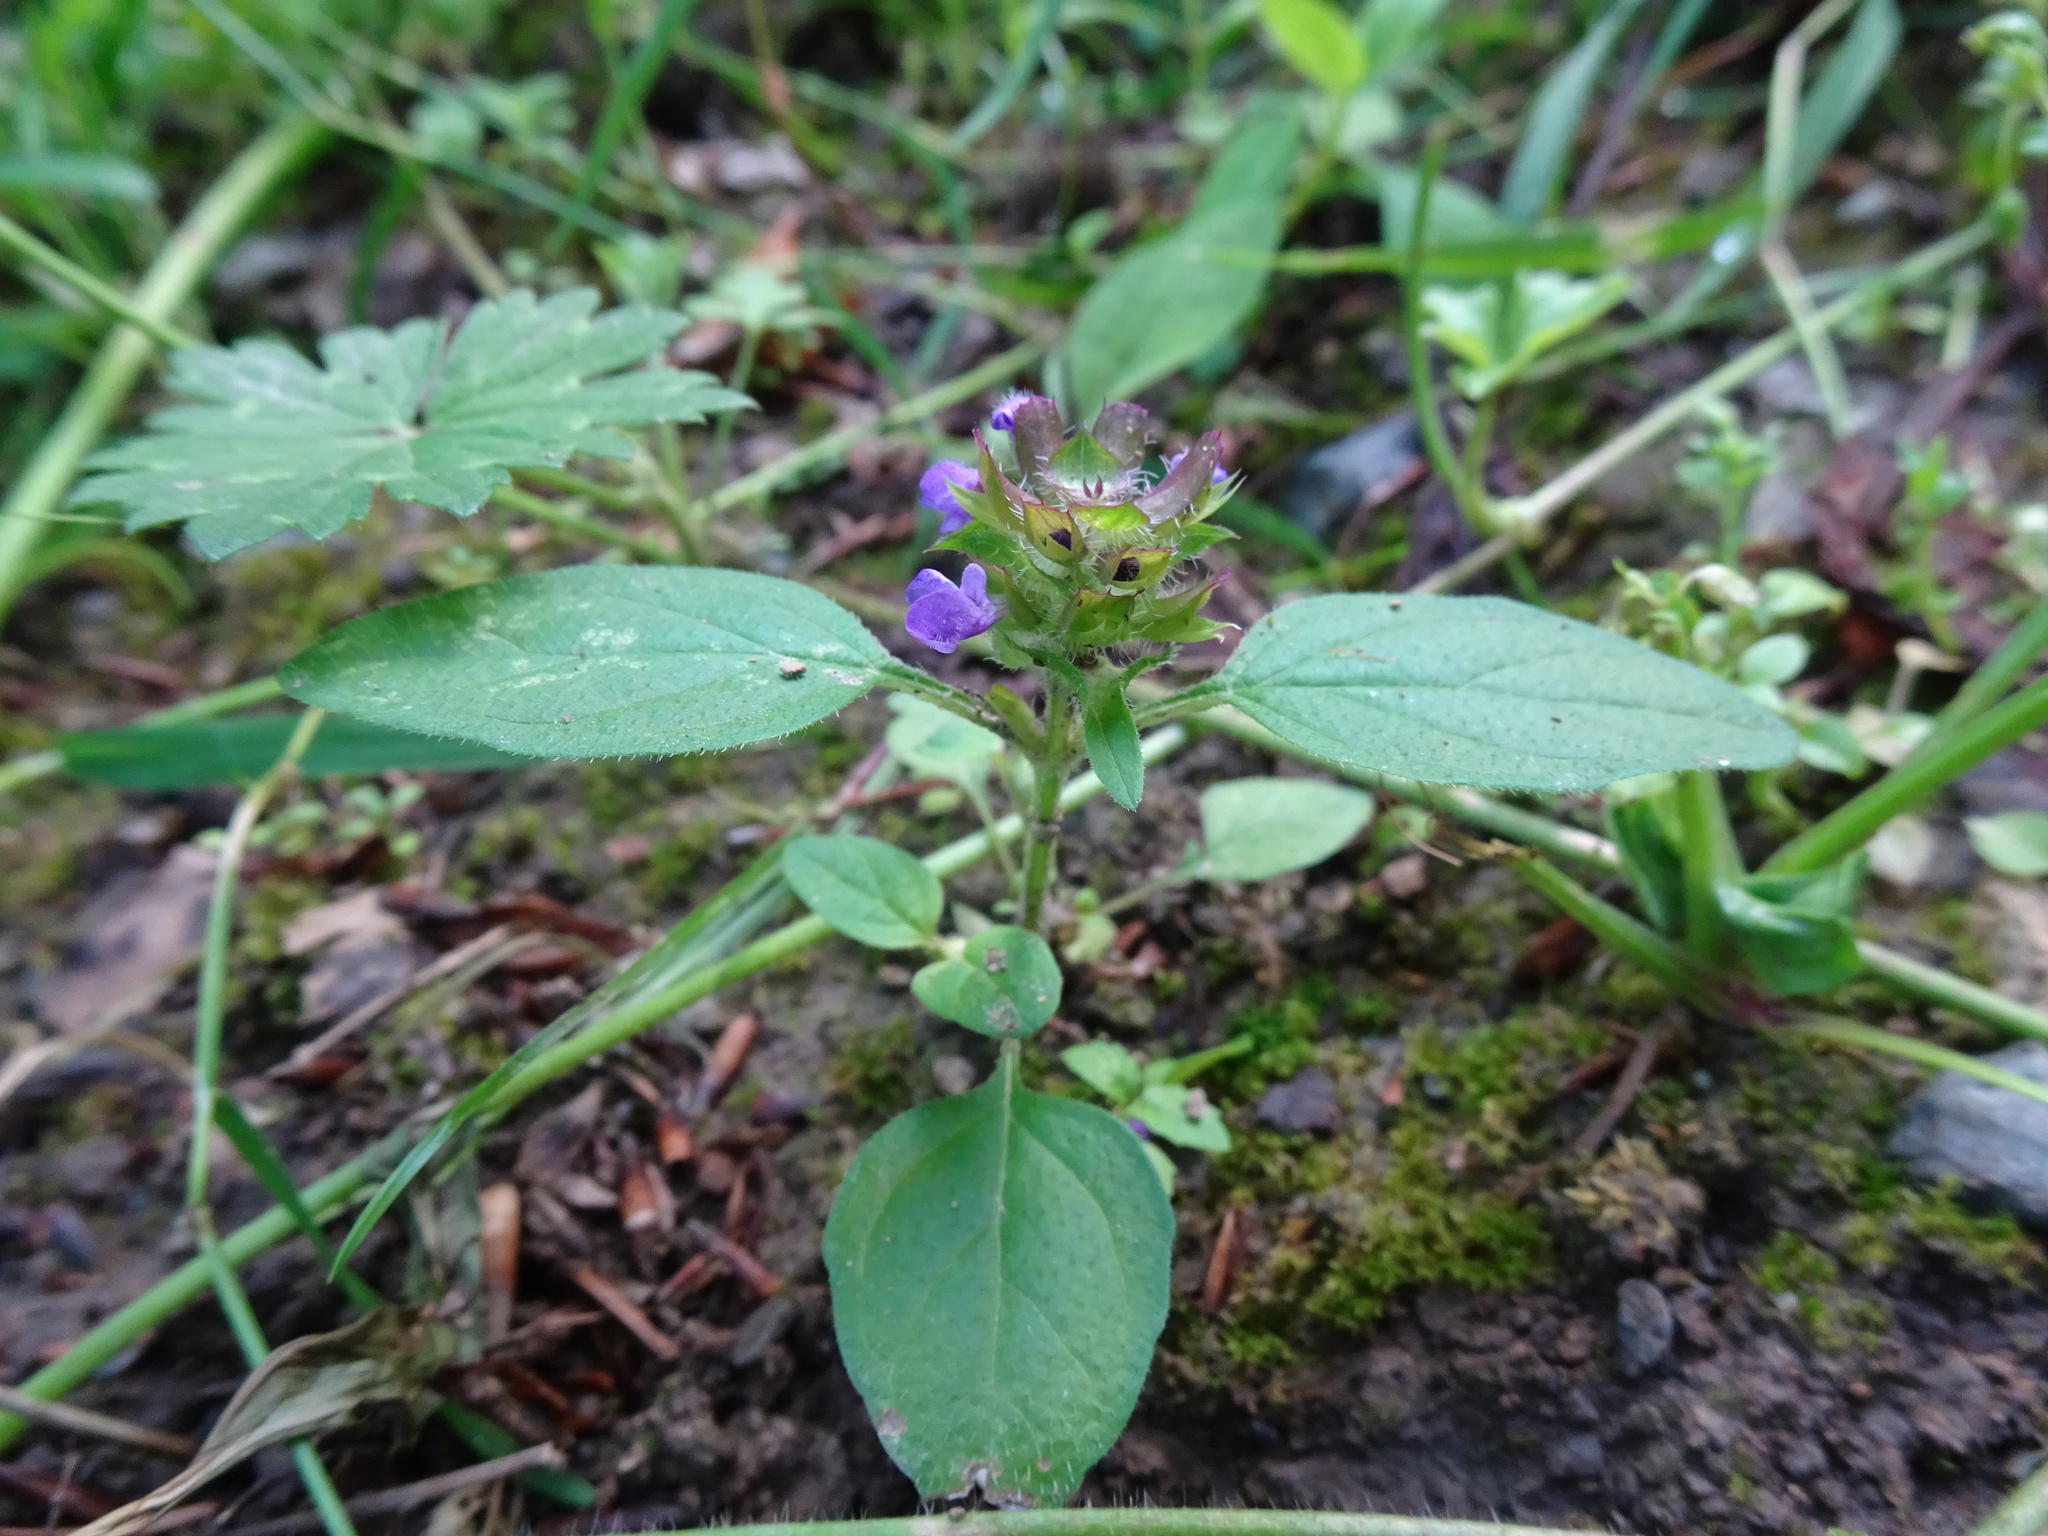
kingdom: Plantae
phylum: Tracheophyta
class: Magnoliopsida
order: Lamiales
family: Lamiaceae
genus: Prunella
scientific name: Prunella vulgaris
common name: Heal-all
